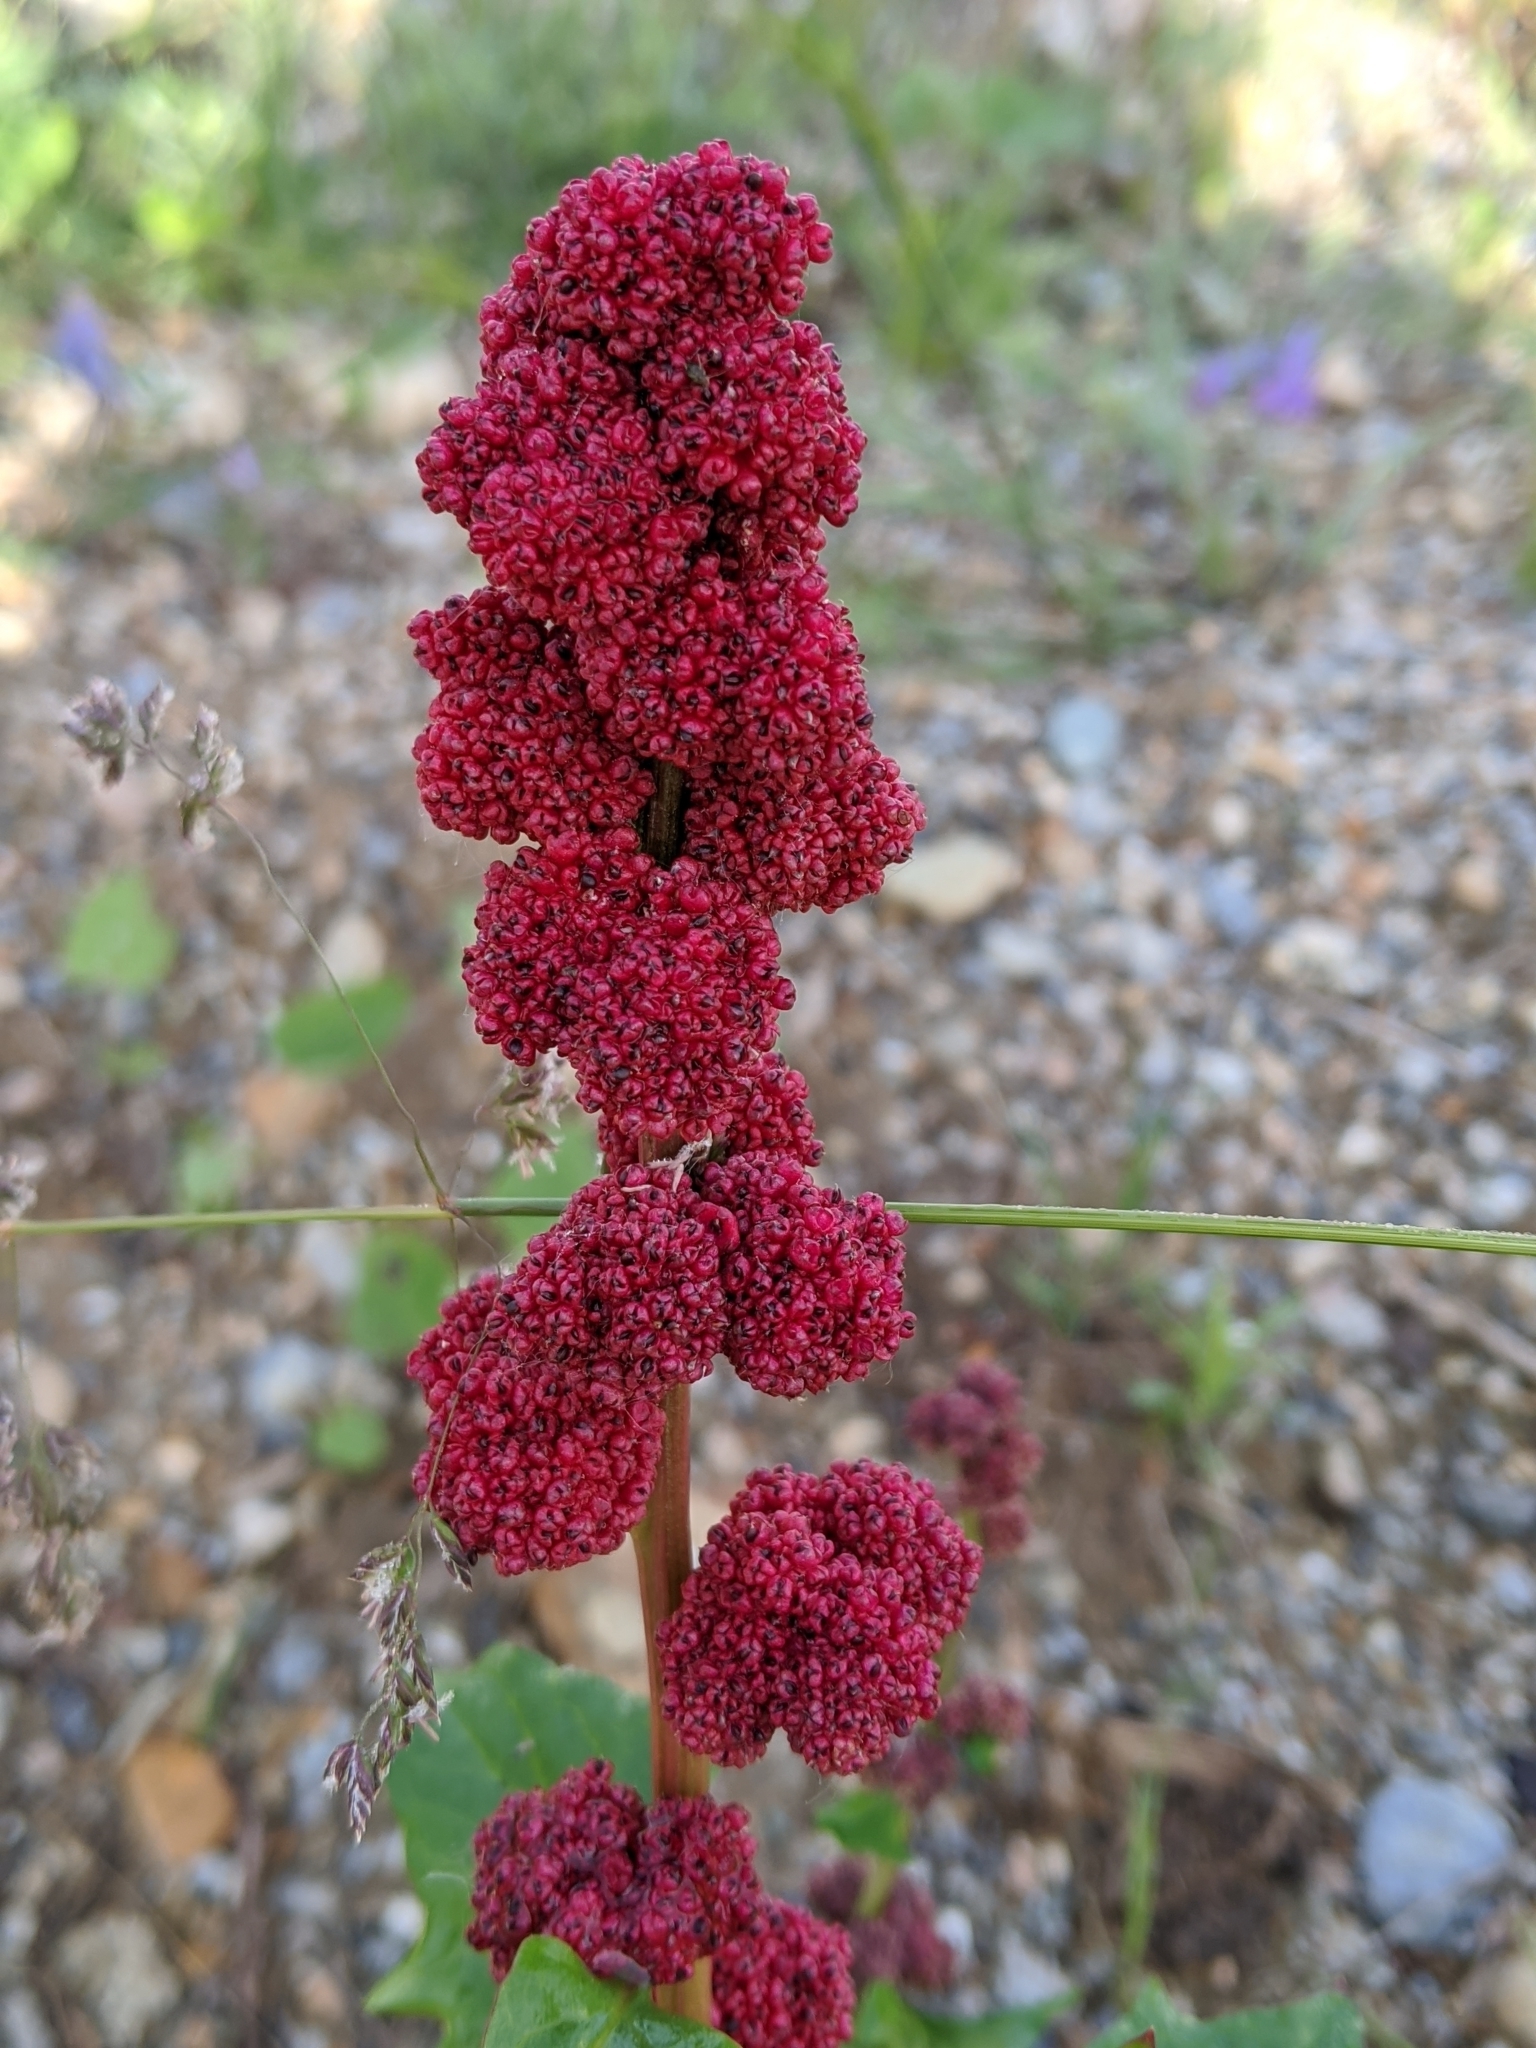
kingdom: Plantae
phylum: Tracheophyta
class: Magnoliopsida
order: Caryophyllales
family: Amaranthaceae
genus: Blitum
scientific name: Blitum capitatum
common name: Strawberry-blight
